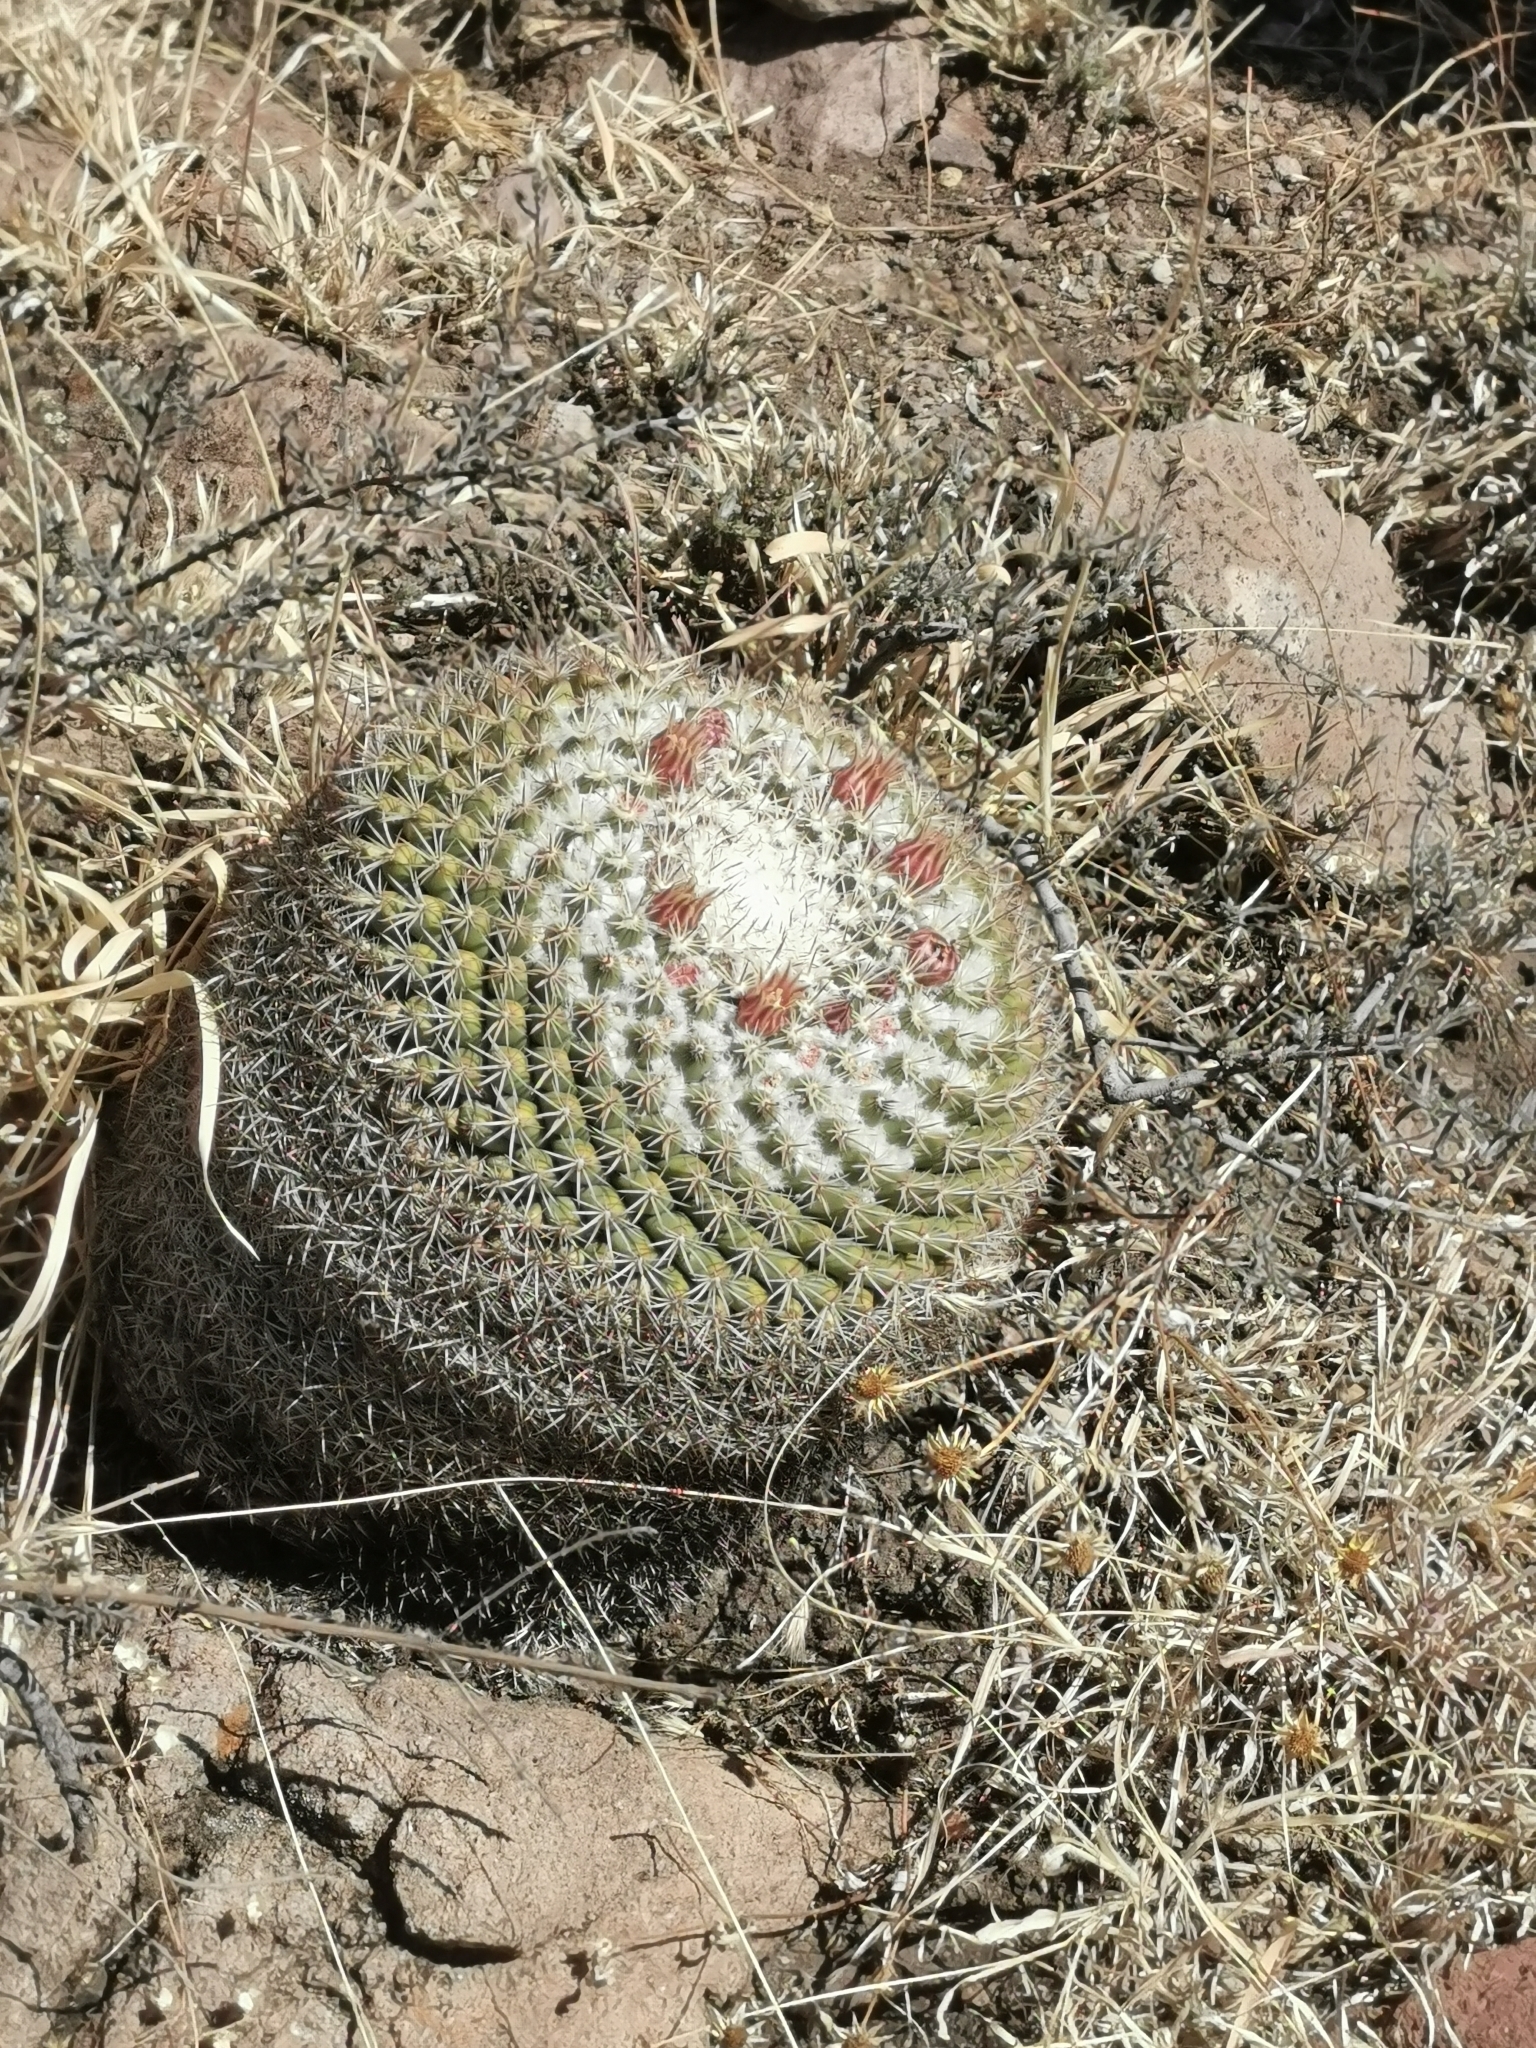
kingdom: Plantae
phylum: Tracheophyta
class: Magnoliopsida
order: Caryophyllales
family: Cactaceae
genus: Mammillaria
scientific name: Mammillaria wagneriana
